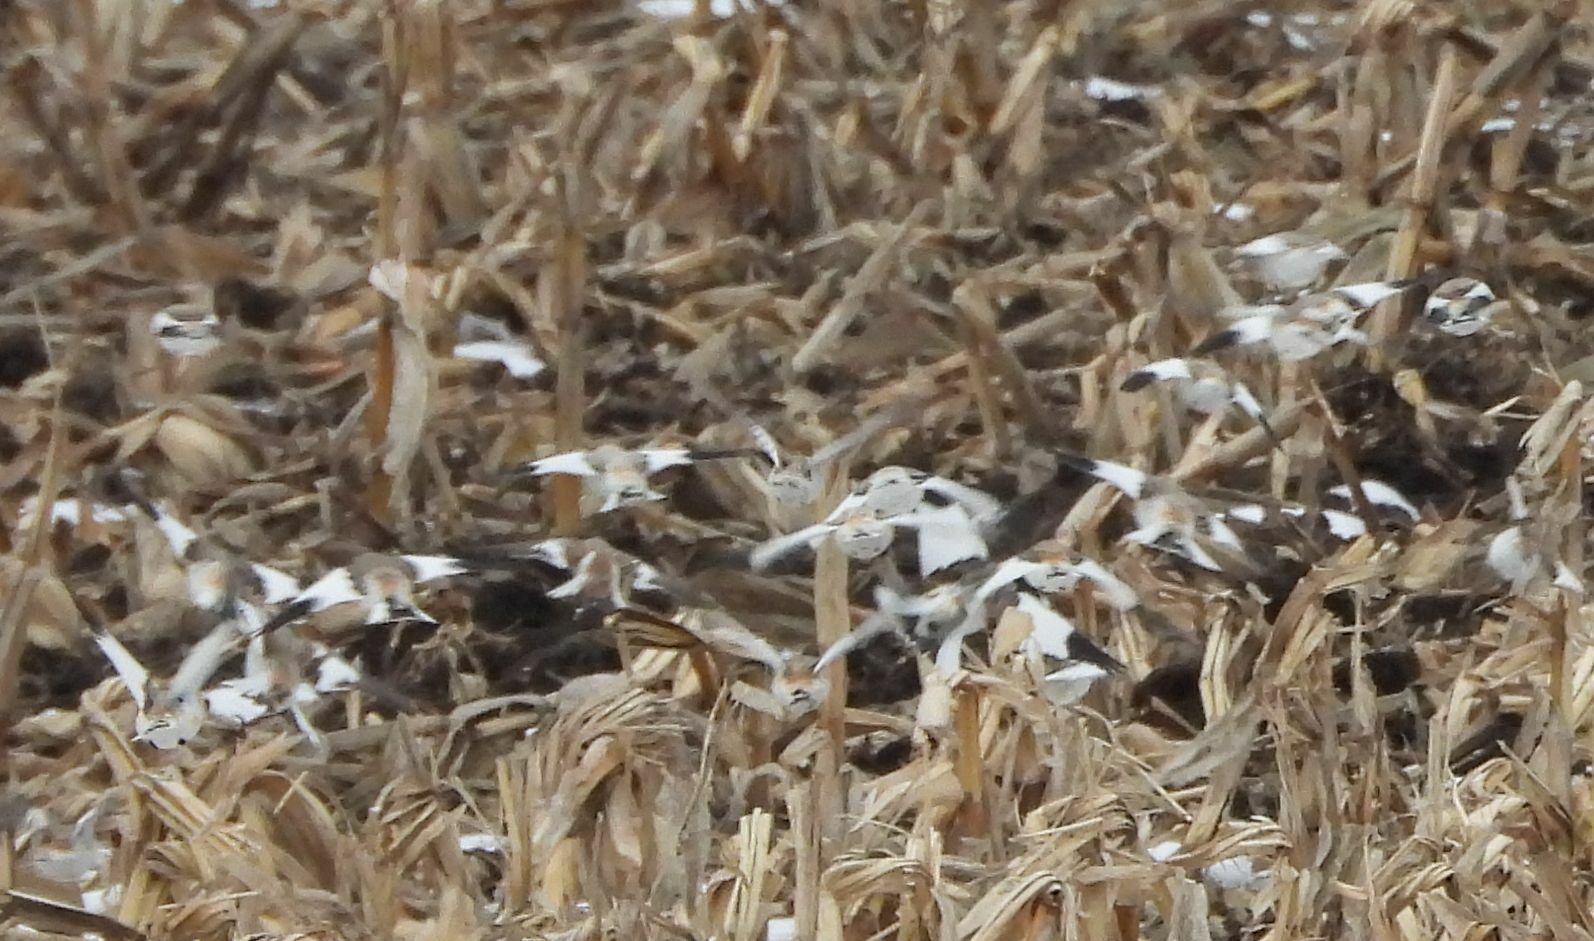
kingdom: Animalia
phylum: Chordata
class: Aves
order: Passeriformes
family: Calcariidae
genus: Plectrophenax
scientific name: Plectrophenax nivalis
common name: Snow bunting
